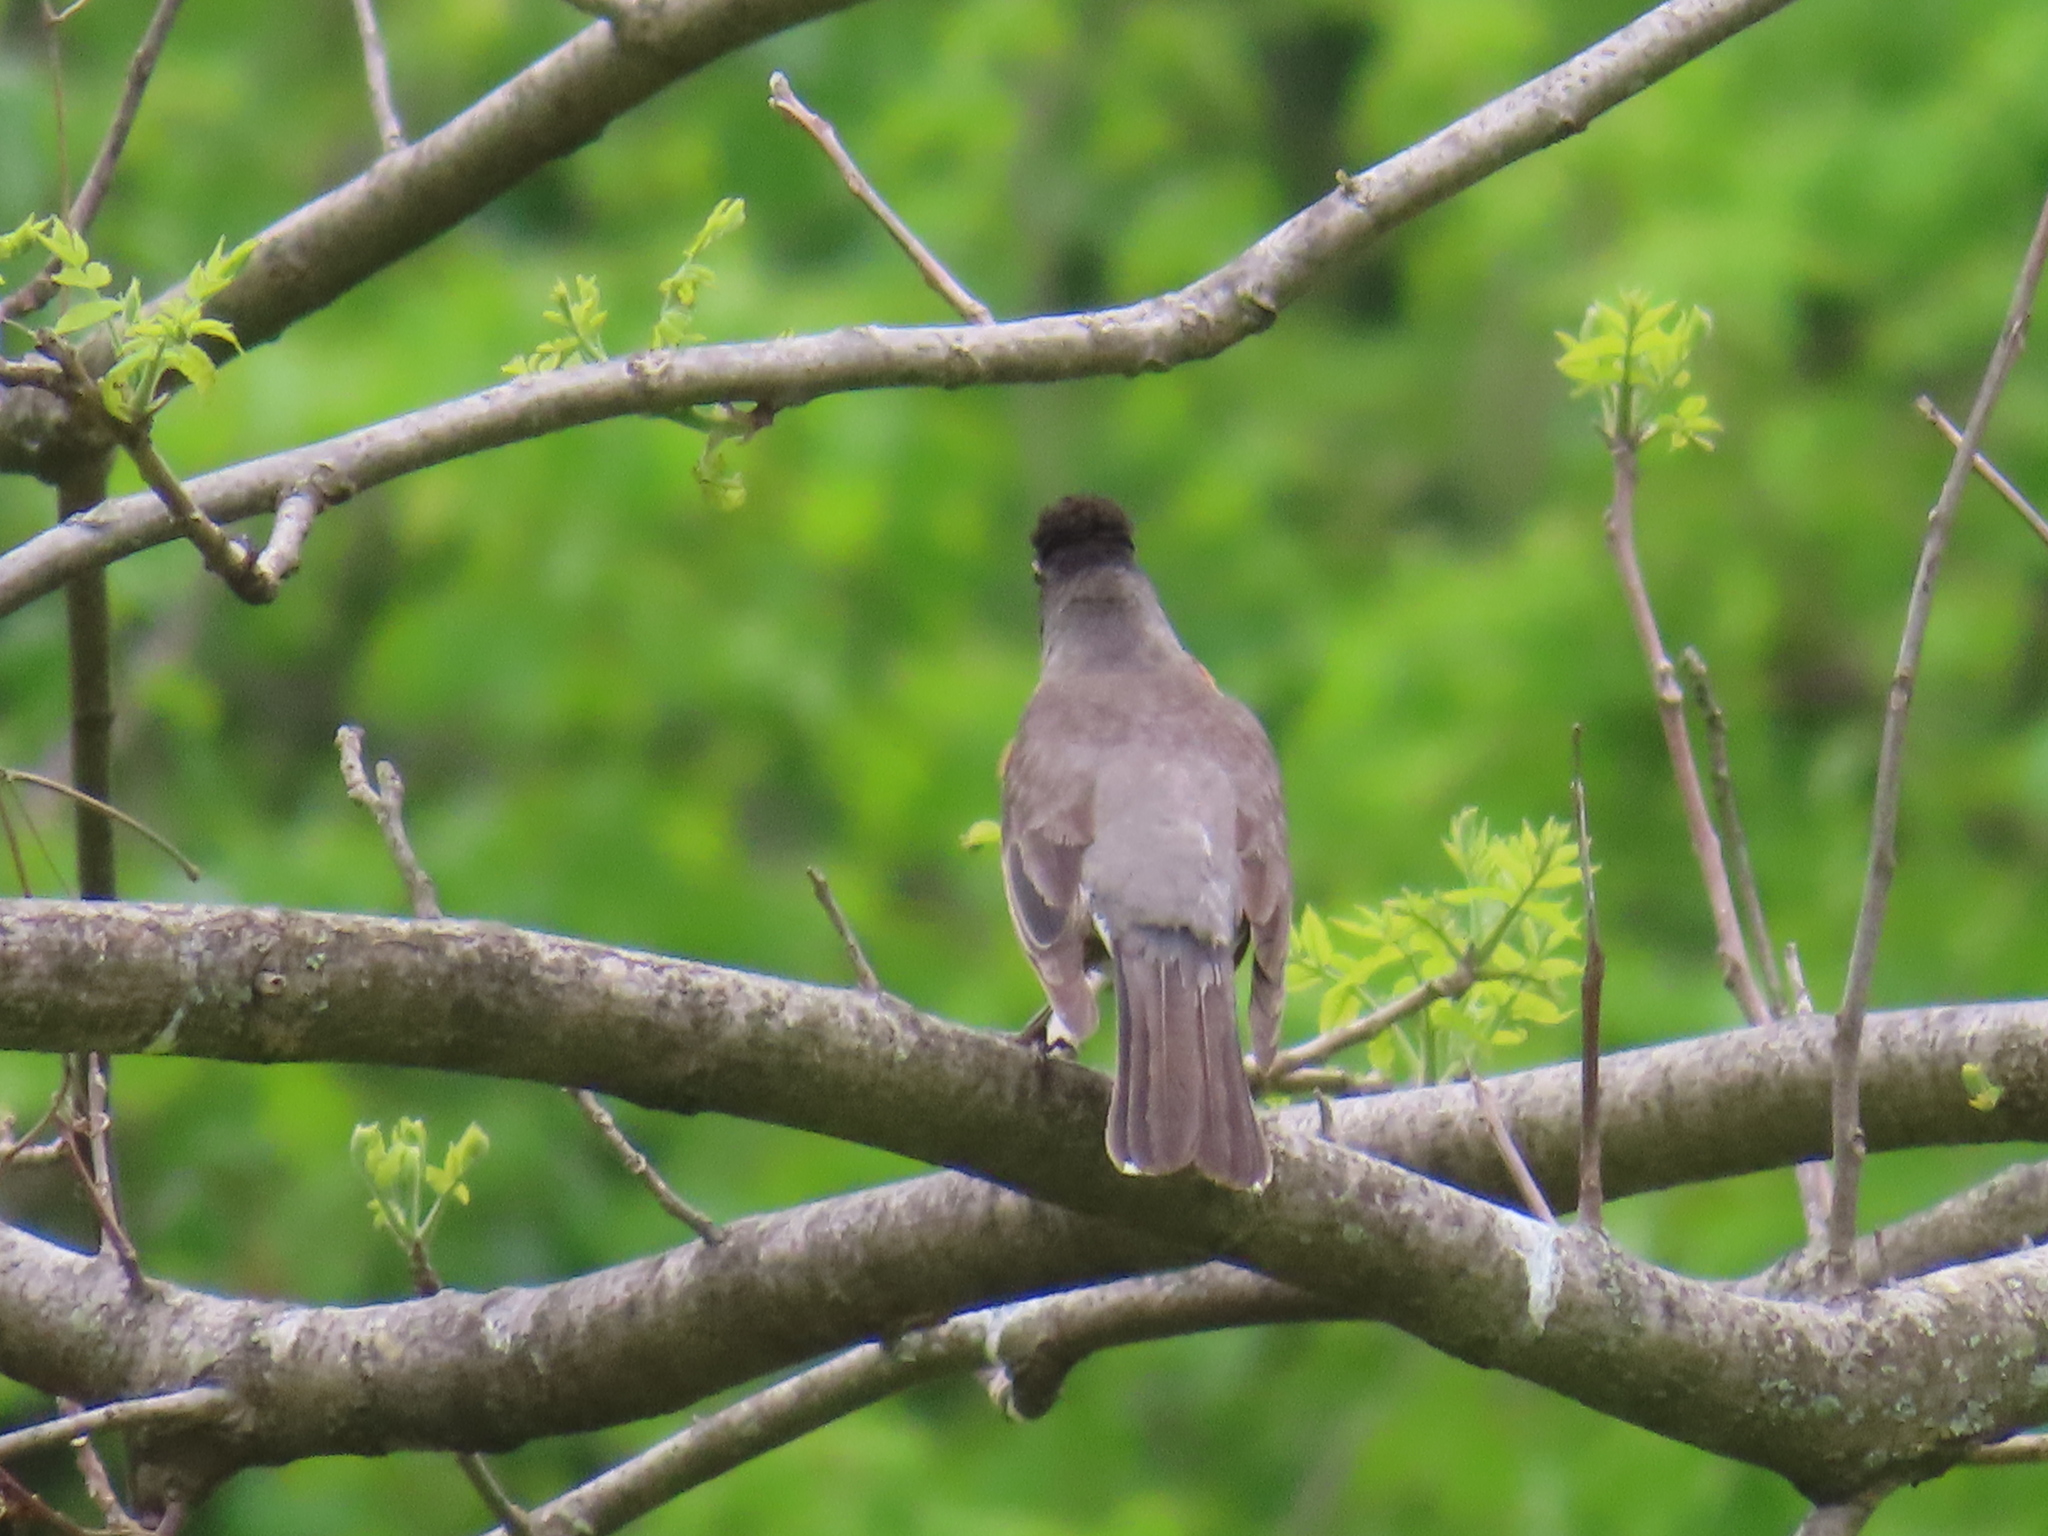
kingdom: Animalia
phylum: Chordata
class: Aves
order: Passeriformes
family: Turdidae
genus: Turdus
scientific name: Turdus migratorius
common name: American robin
